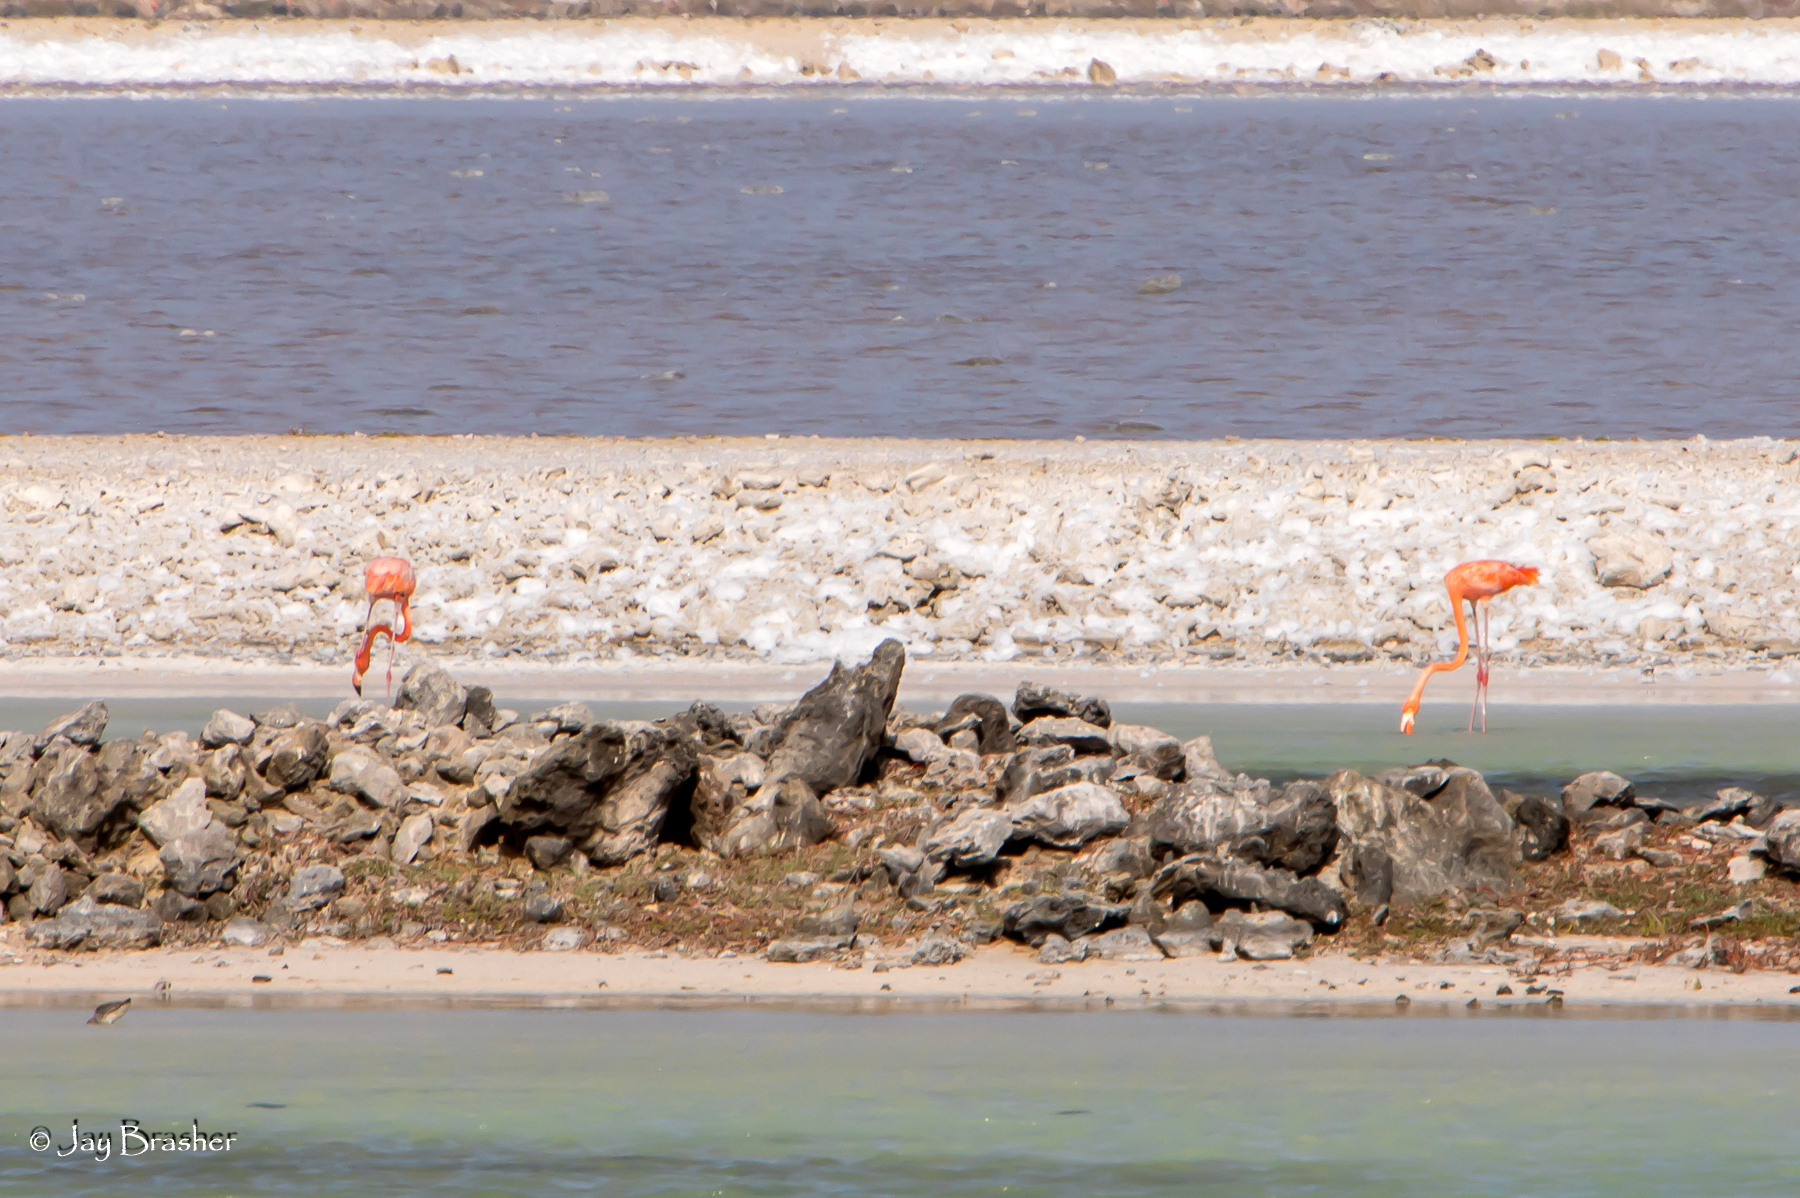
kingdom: Animalia
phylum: Chordata
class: Aves
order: Phoenicopteriformes
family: Phoenicopteridae
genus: Phoenicopterus
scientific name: Phoenicopterus ruber
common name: American flamingo
